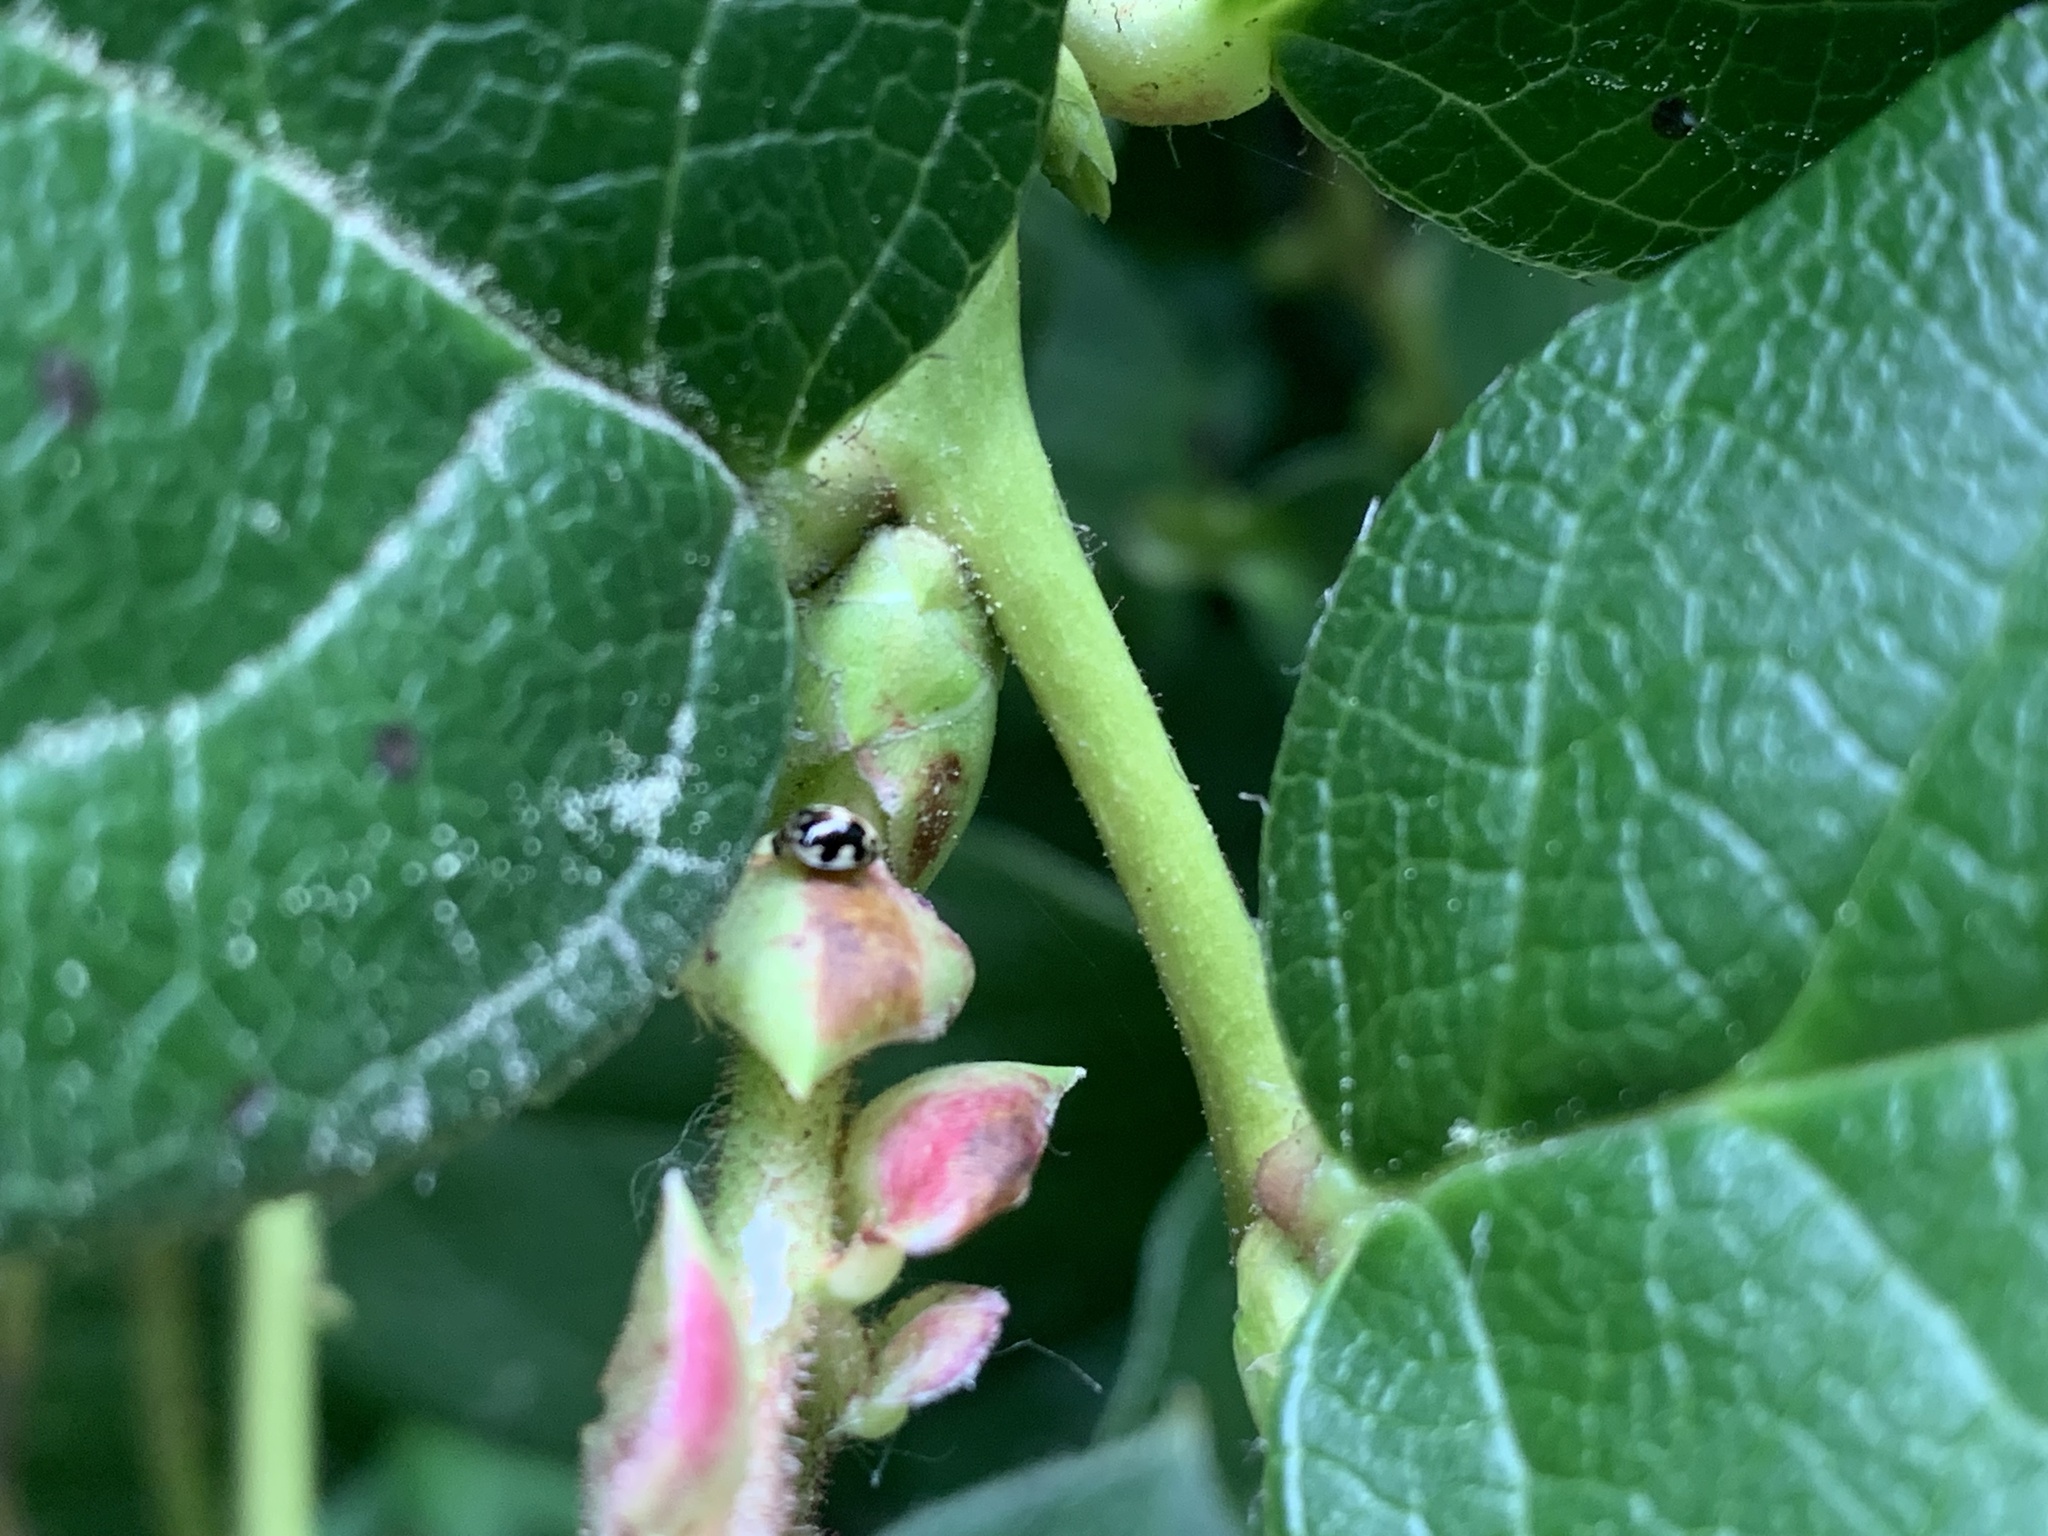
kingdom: Animalia
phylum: Arthropoda
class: Insecta
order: Coleoptera
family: Coccinellidae
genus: Psyllobora
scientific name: Psyllobora vigintimaculata
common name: Ladybird beetle
